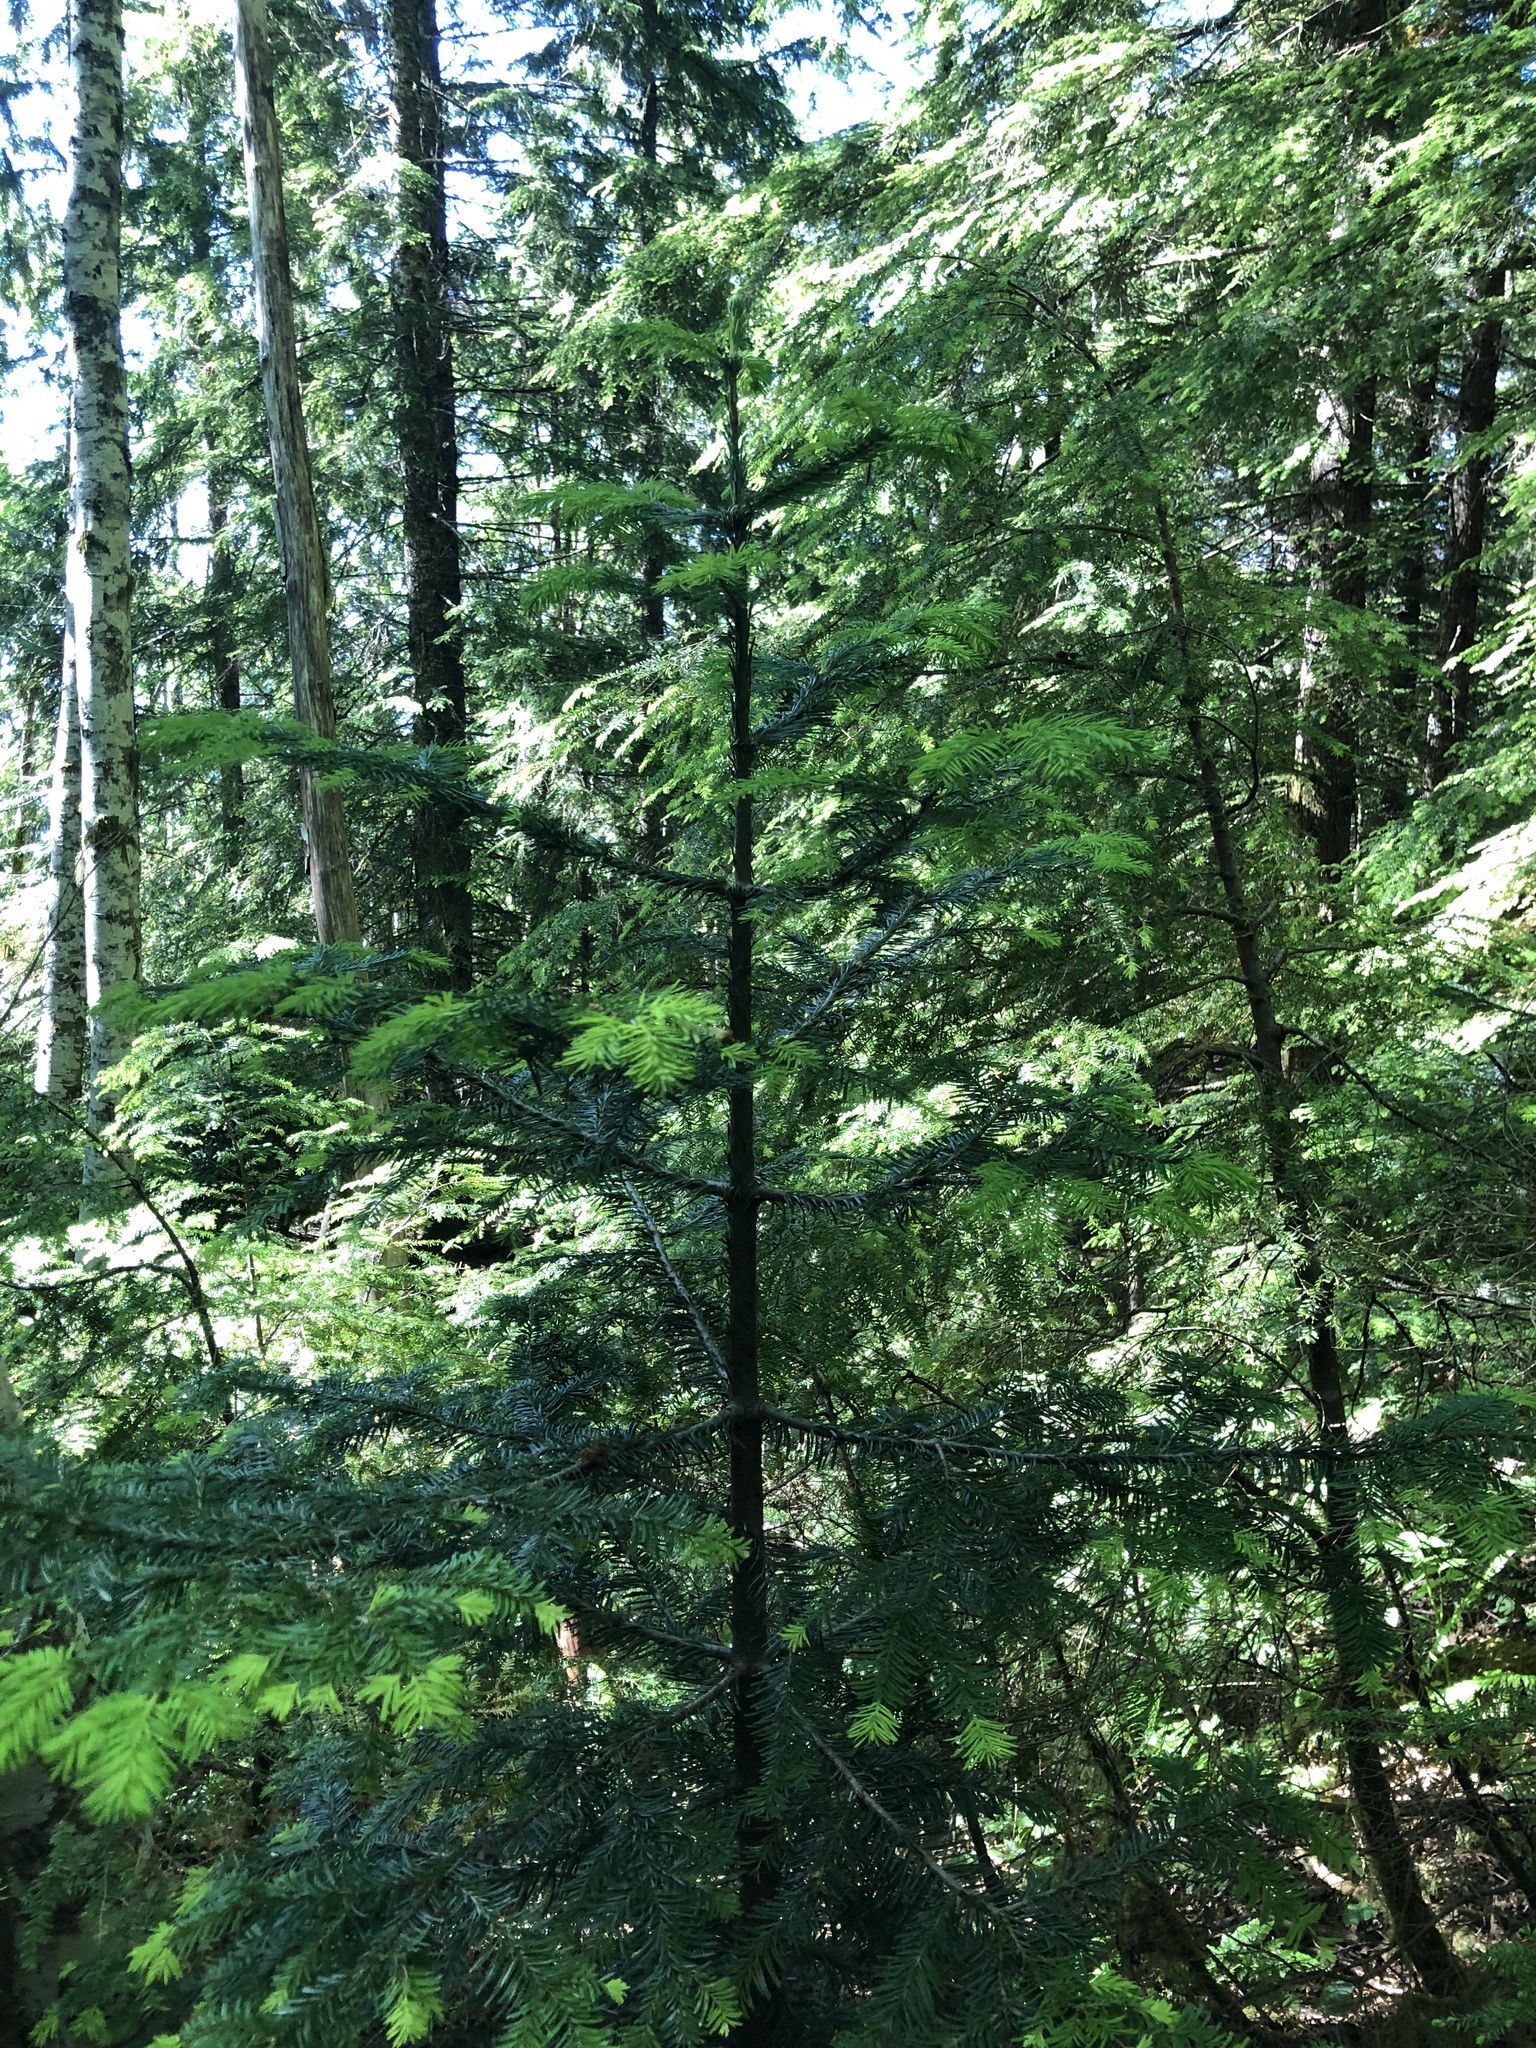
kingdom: Plantae
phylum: Tracheophyta
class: Pinopsida
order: Pinales
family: Pinaceae
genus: Abies
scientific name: Abies amabilis
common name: Pacific silver fir
